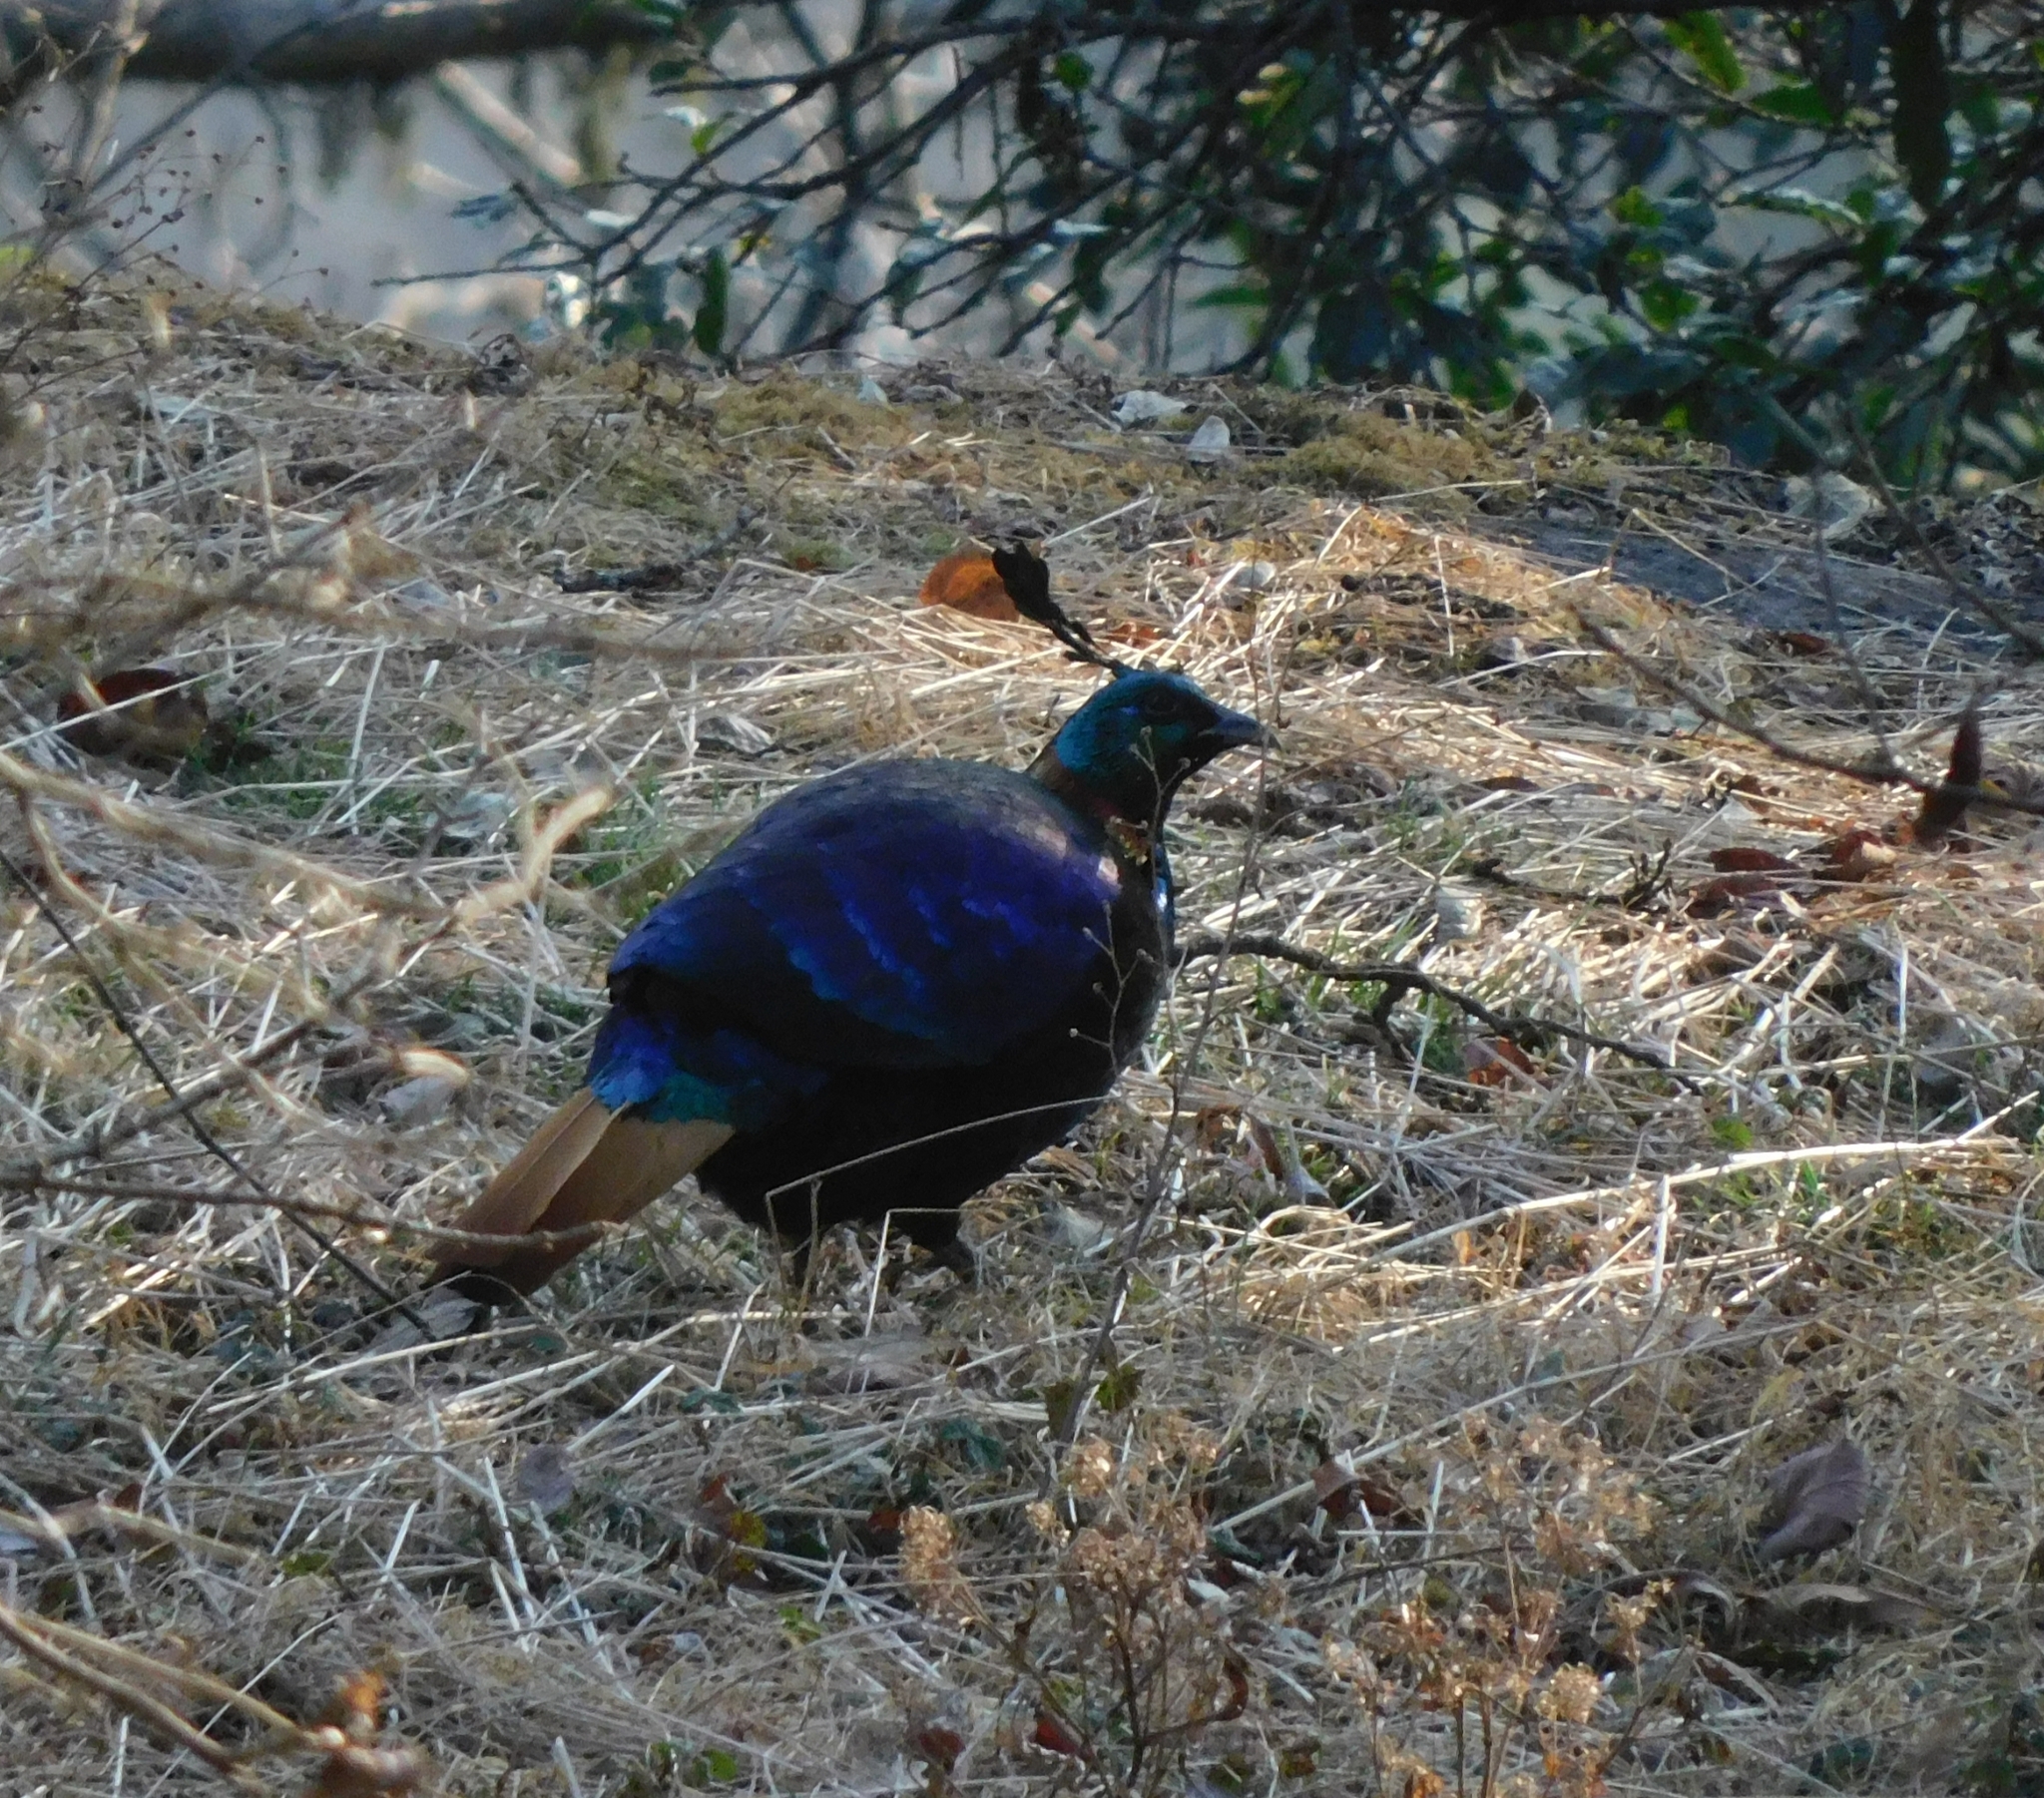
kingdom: Animalia
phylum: Chordata
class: Aves
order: Galliformes
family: Phasianidae
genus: Lophophorus
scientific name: Lophophorus impejanus
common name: Himalayan monal
